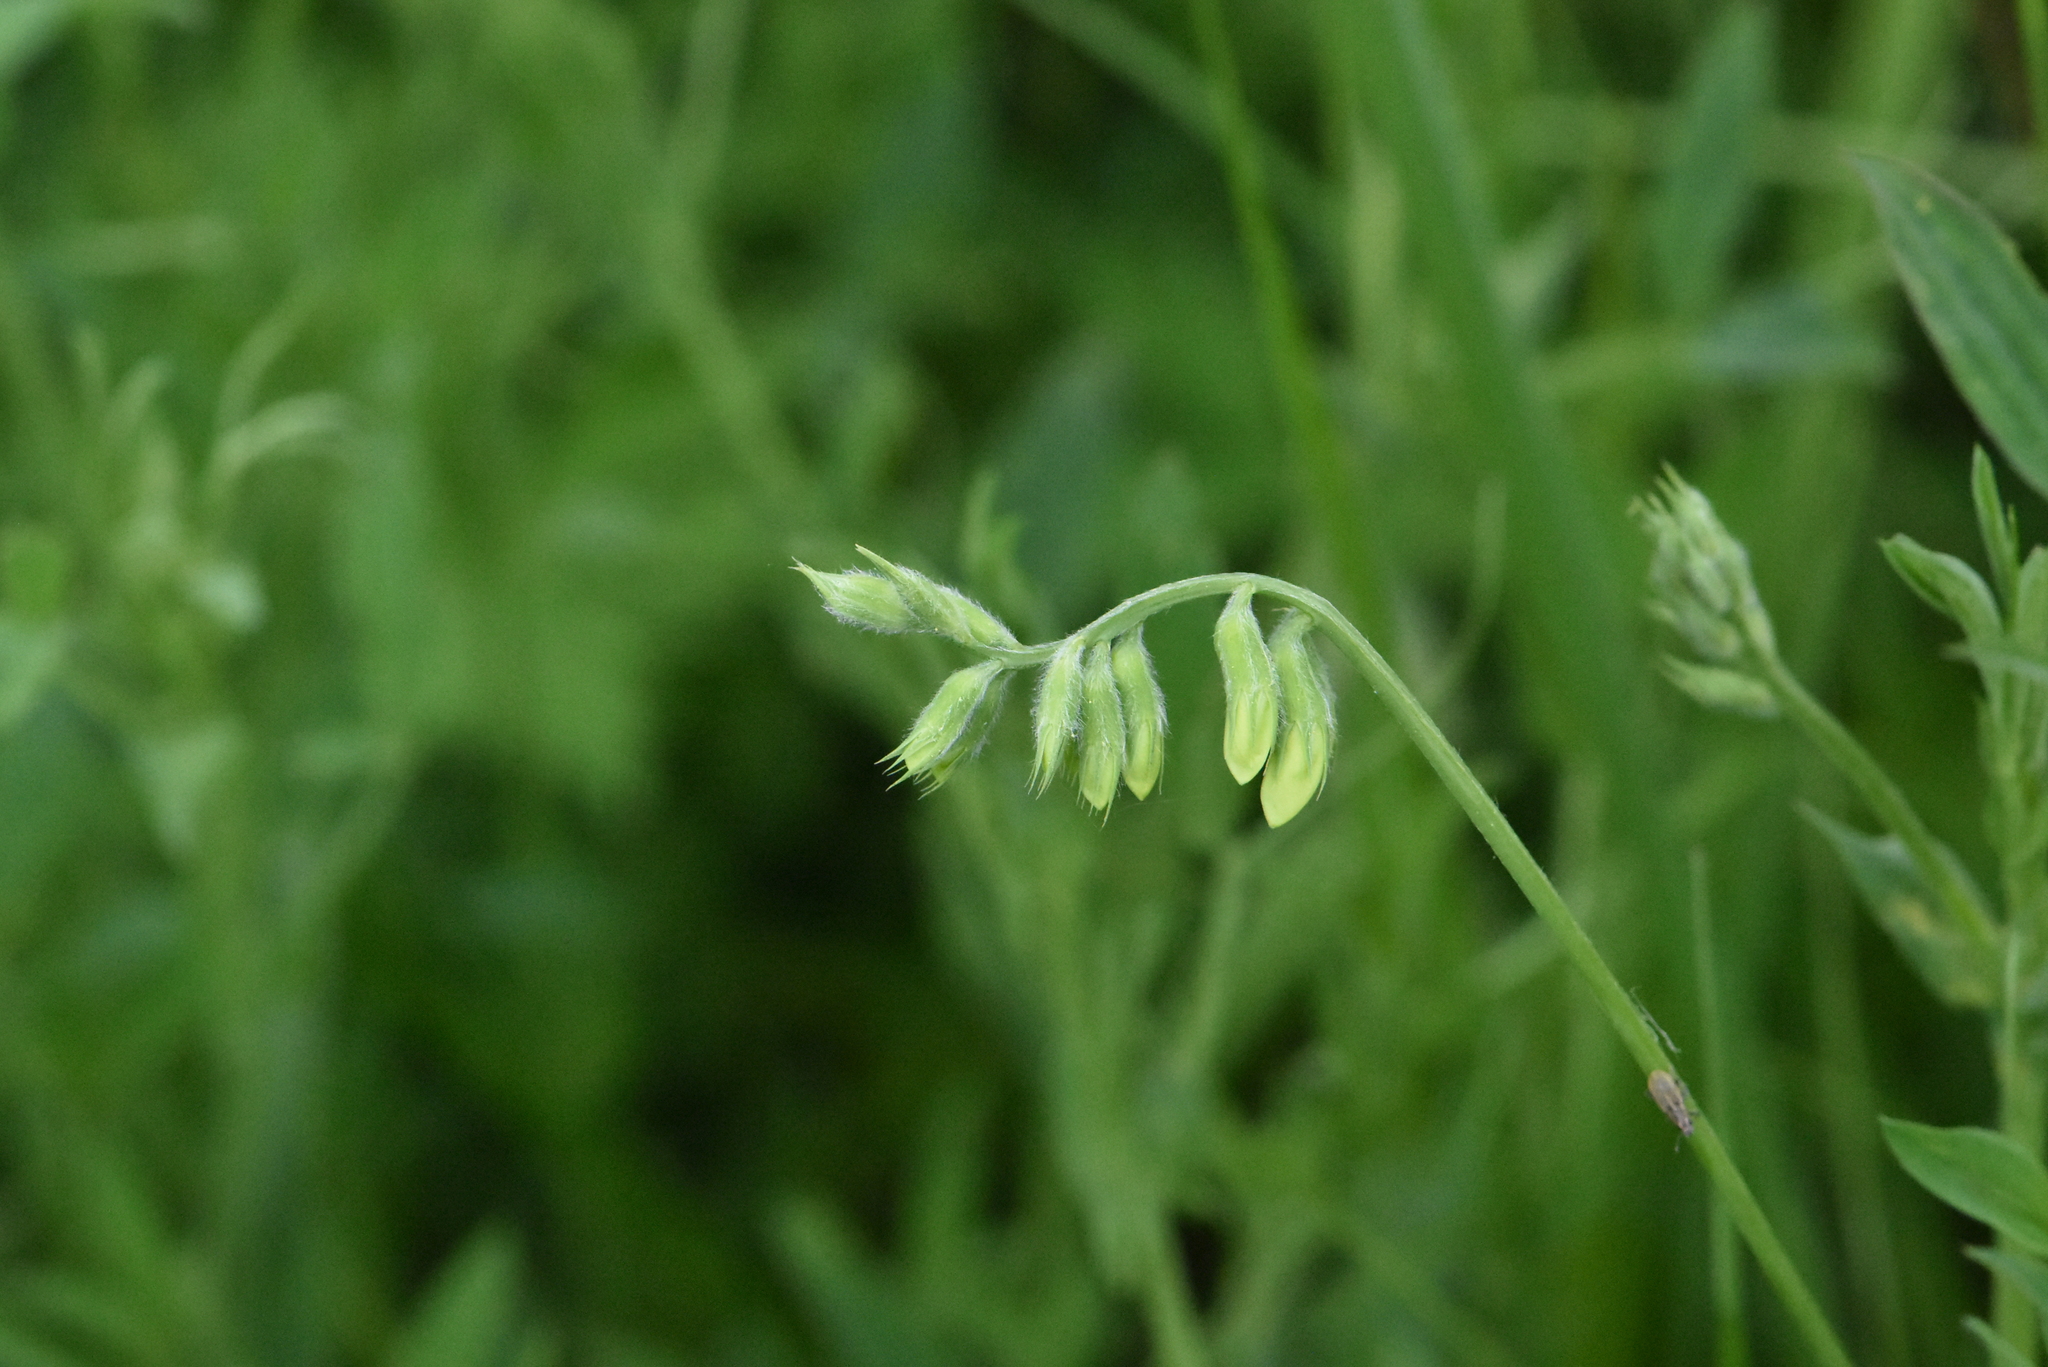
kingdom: Plantae
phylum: Tracheophyta
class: Magnoliopsida
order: Fabales
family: Fabaceae
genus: Lathyrus
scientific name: Lathyrus pratensis
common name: Meadow vetchling
